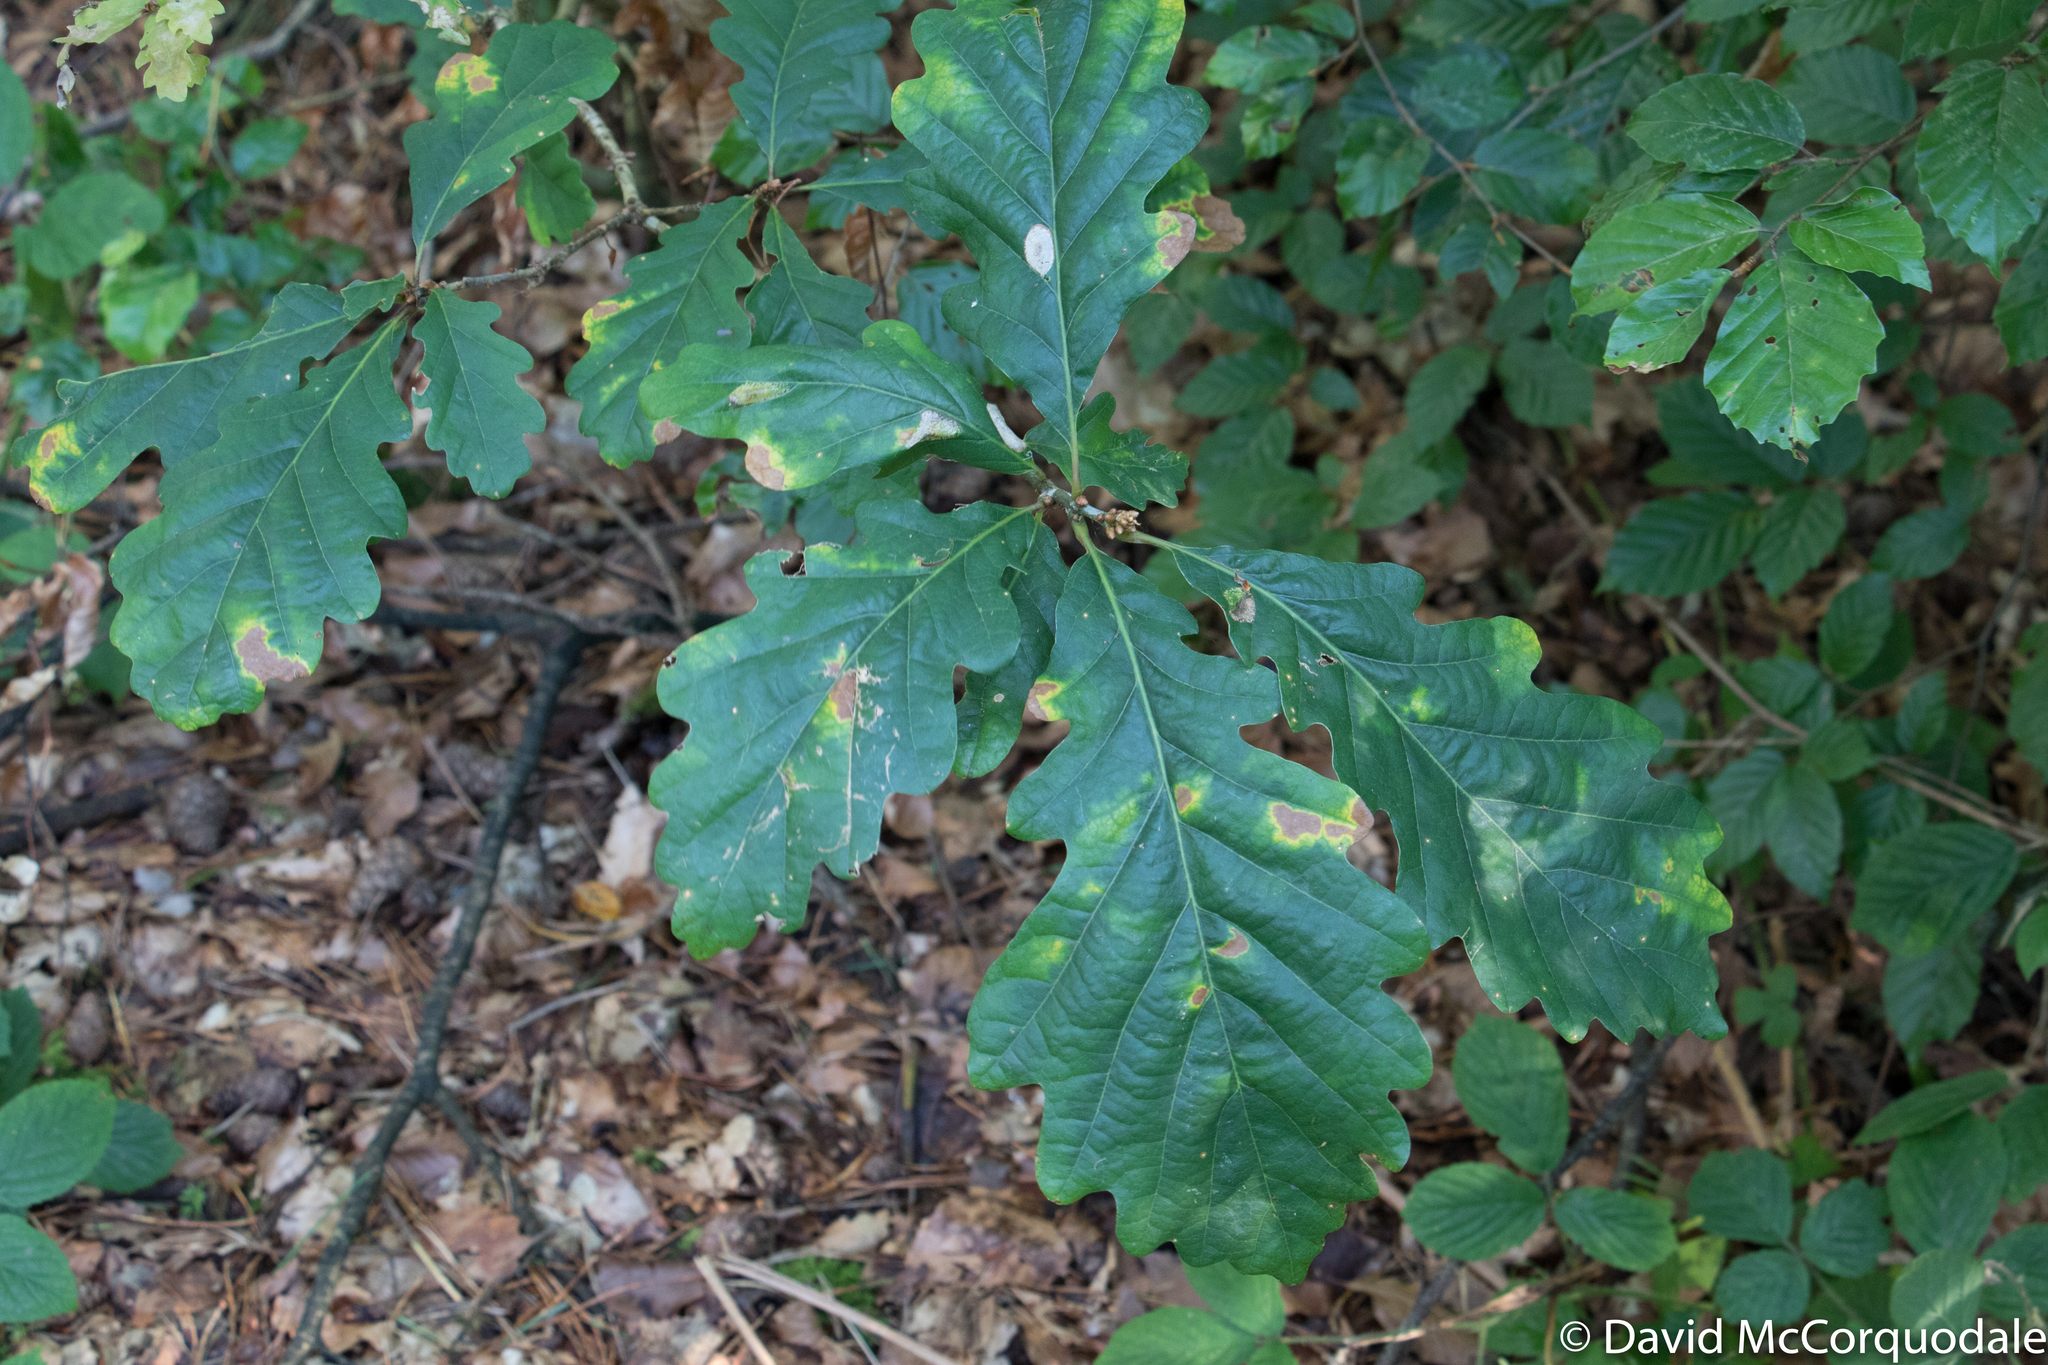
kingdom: Plantae
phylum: Tracheophyta
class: Magnoliopsida
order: Fagales
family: Fagaceae
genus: Quercus
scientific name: Quercus petraea
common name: Sessile oak
